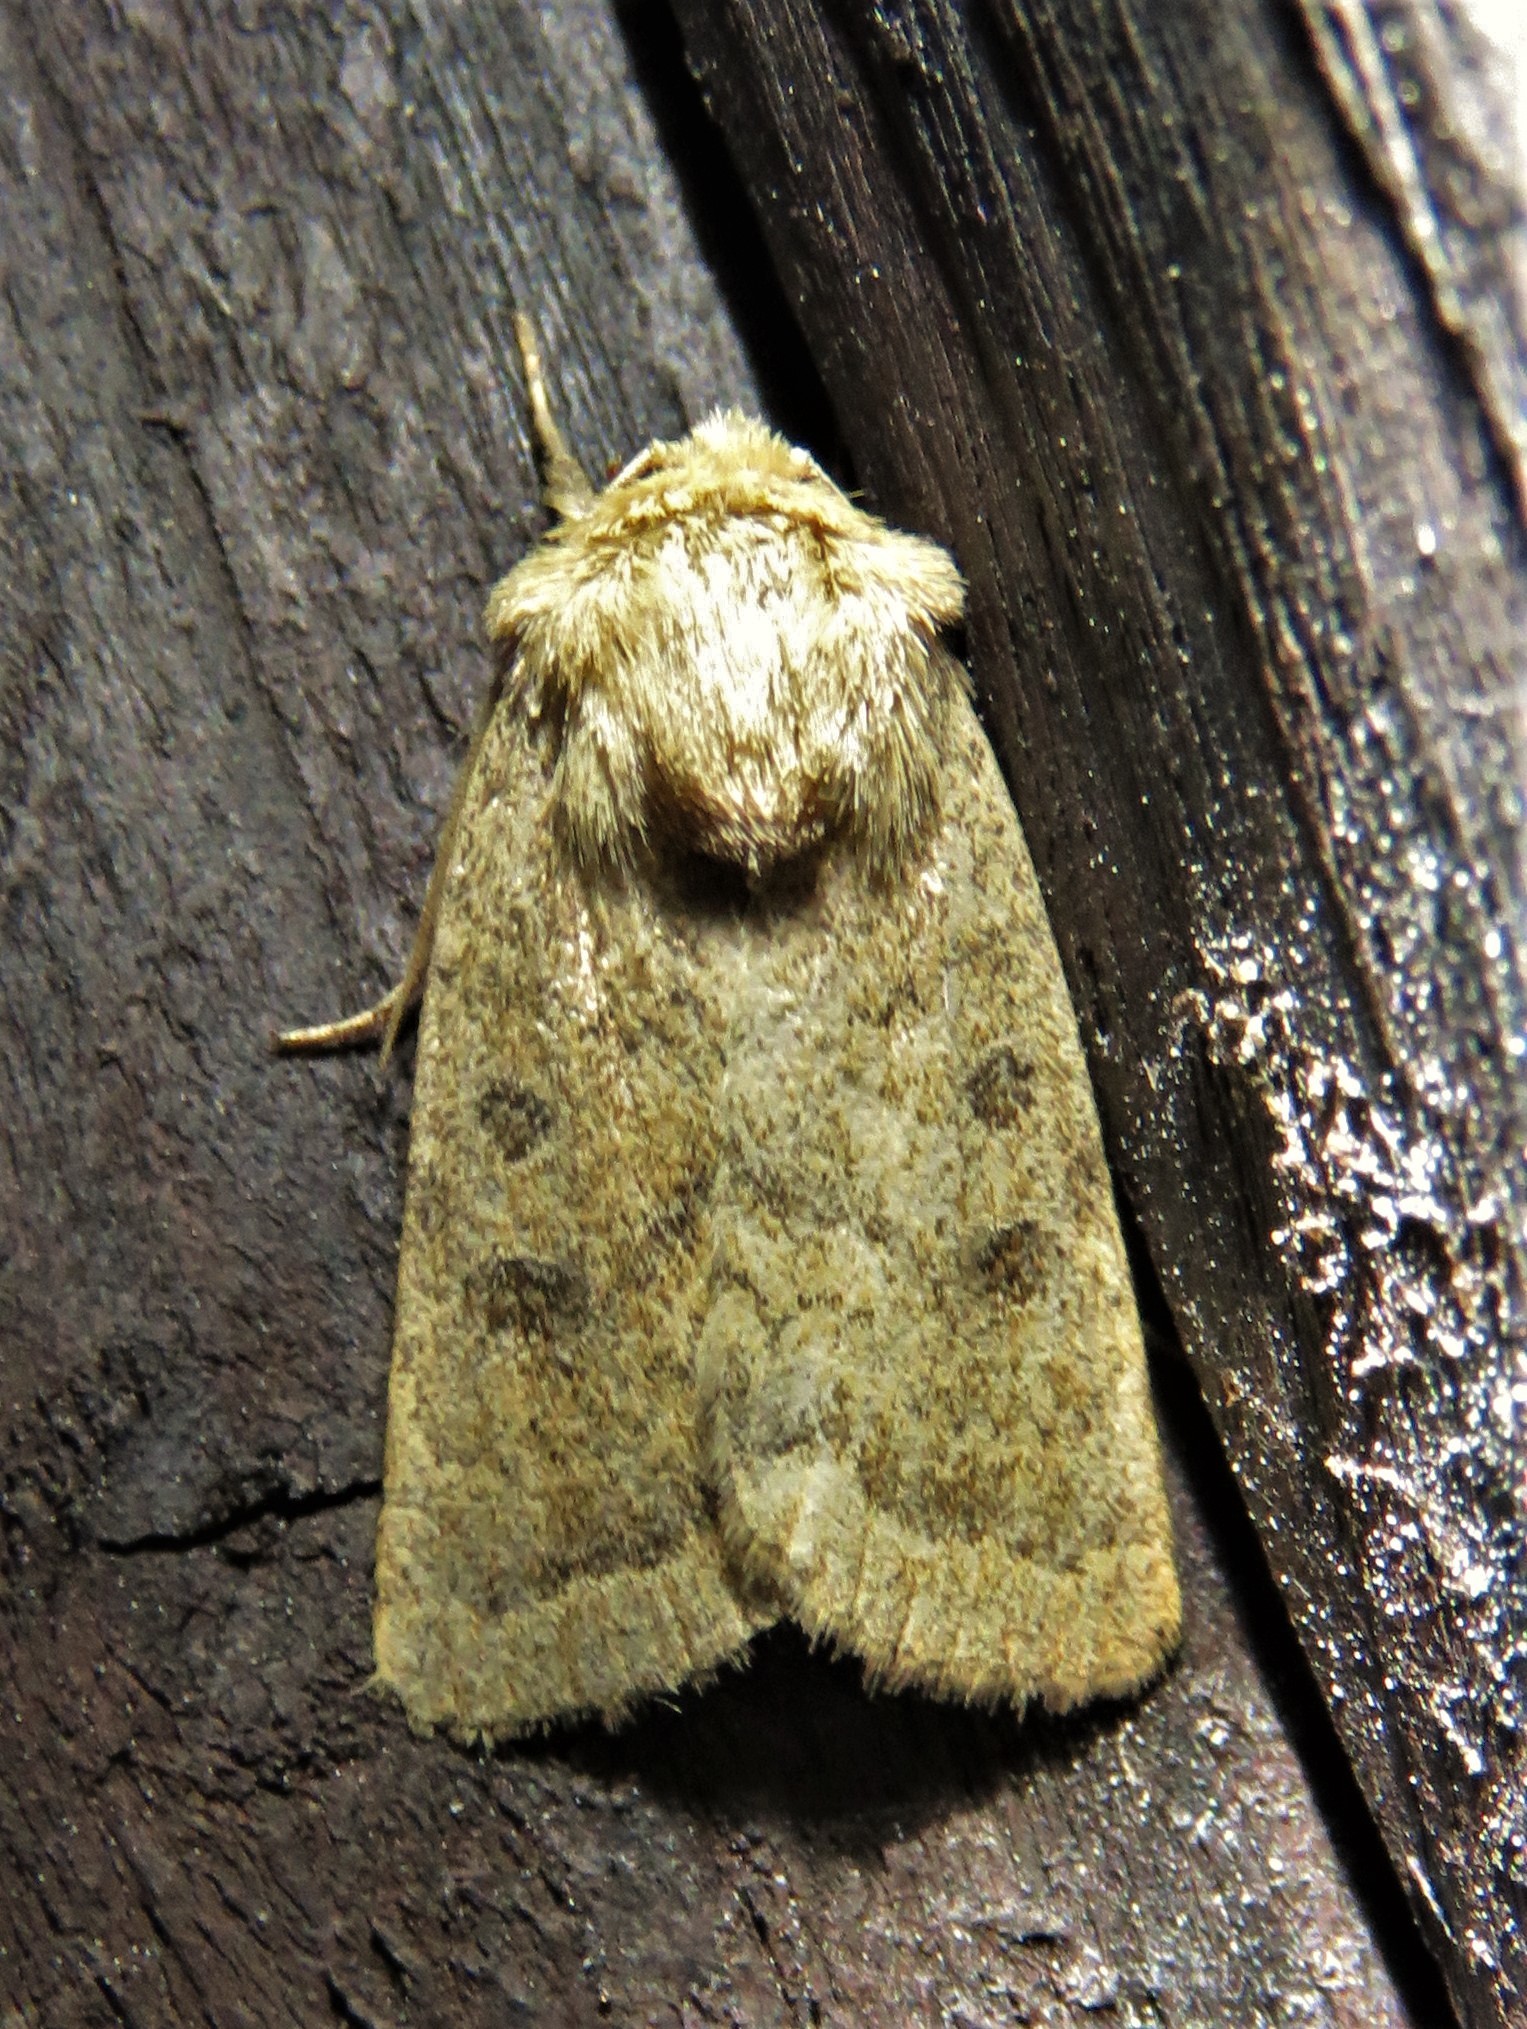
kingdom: Animalia
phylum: Arthropoda
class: Insecta
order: Lepidoptera
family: Noctuidae
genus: Hoplodrina
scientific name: Hoplodrina octogenaria
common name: Uncertain
